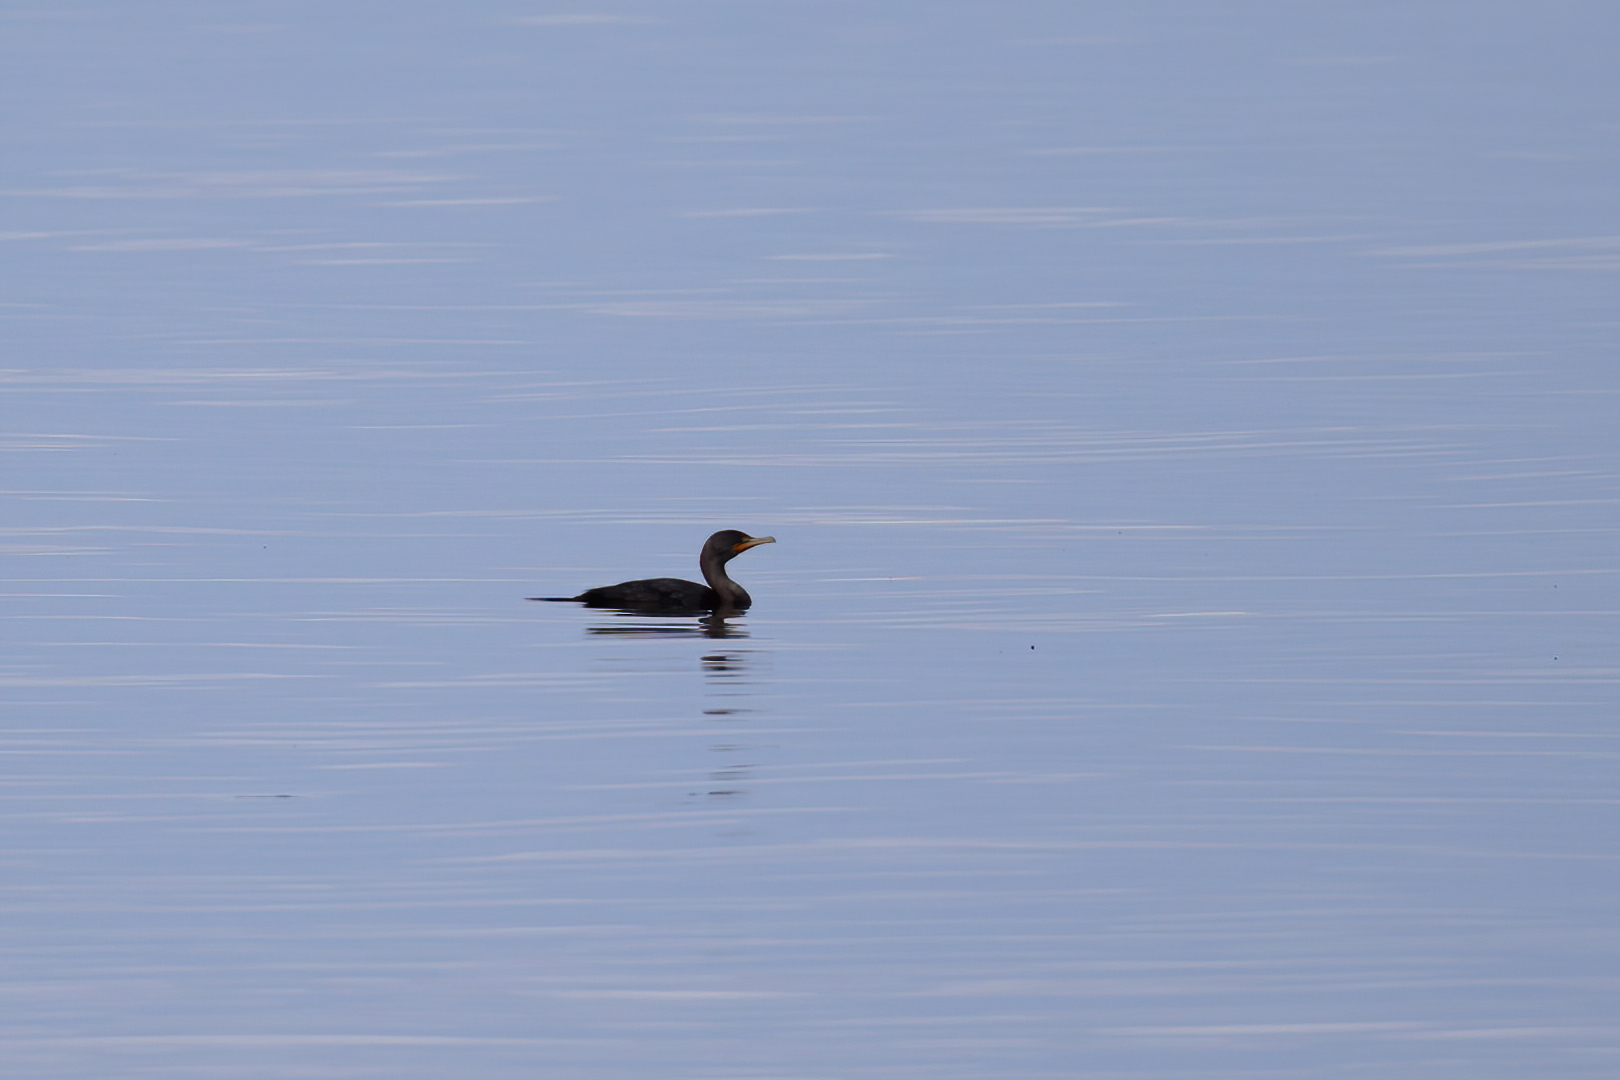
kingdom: Animalia
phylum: Chordata
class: Aves
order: Suliformes
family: Phalacrocoracidae
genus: Phalacrocorax
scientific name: Phalacrocorax auritus
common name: Double-crested cormorant
